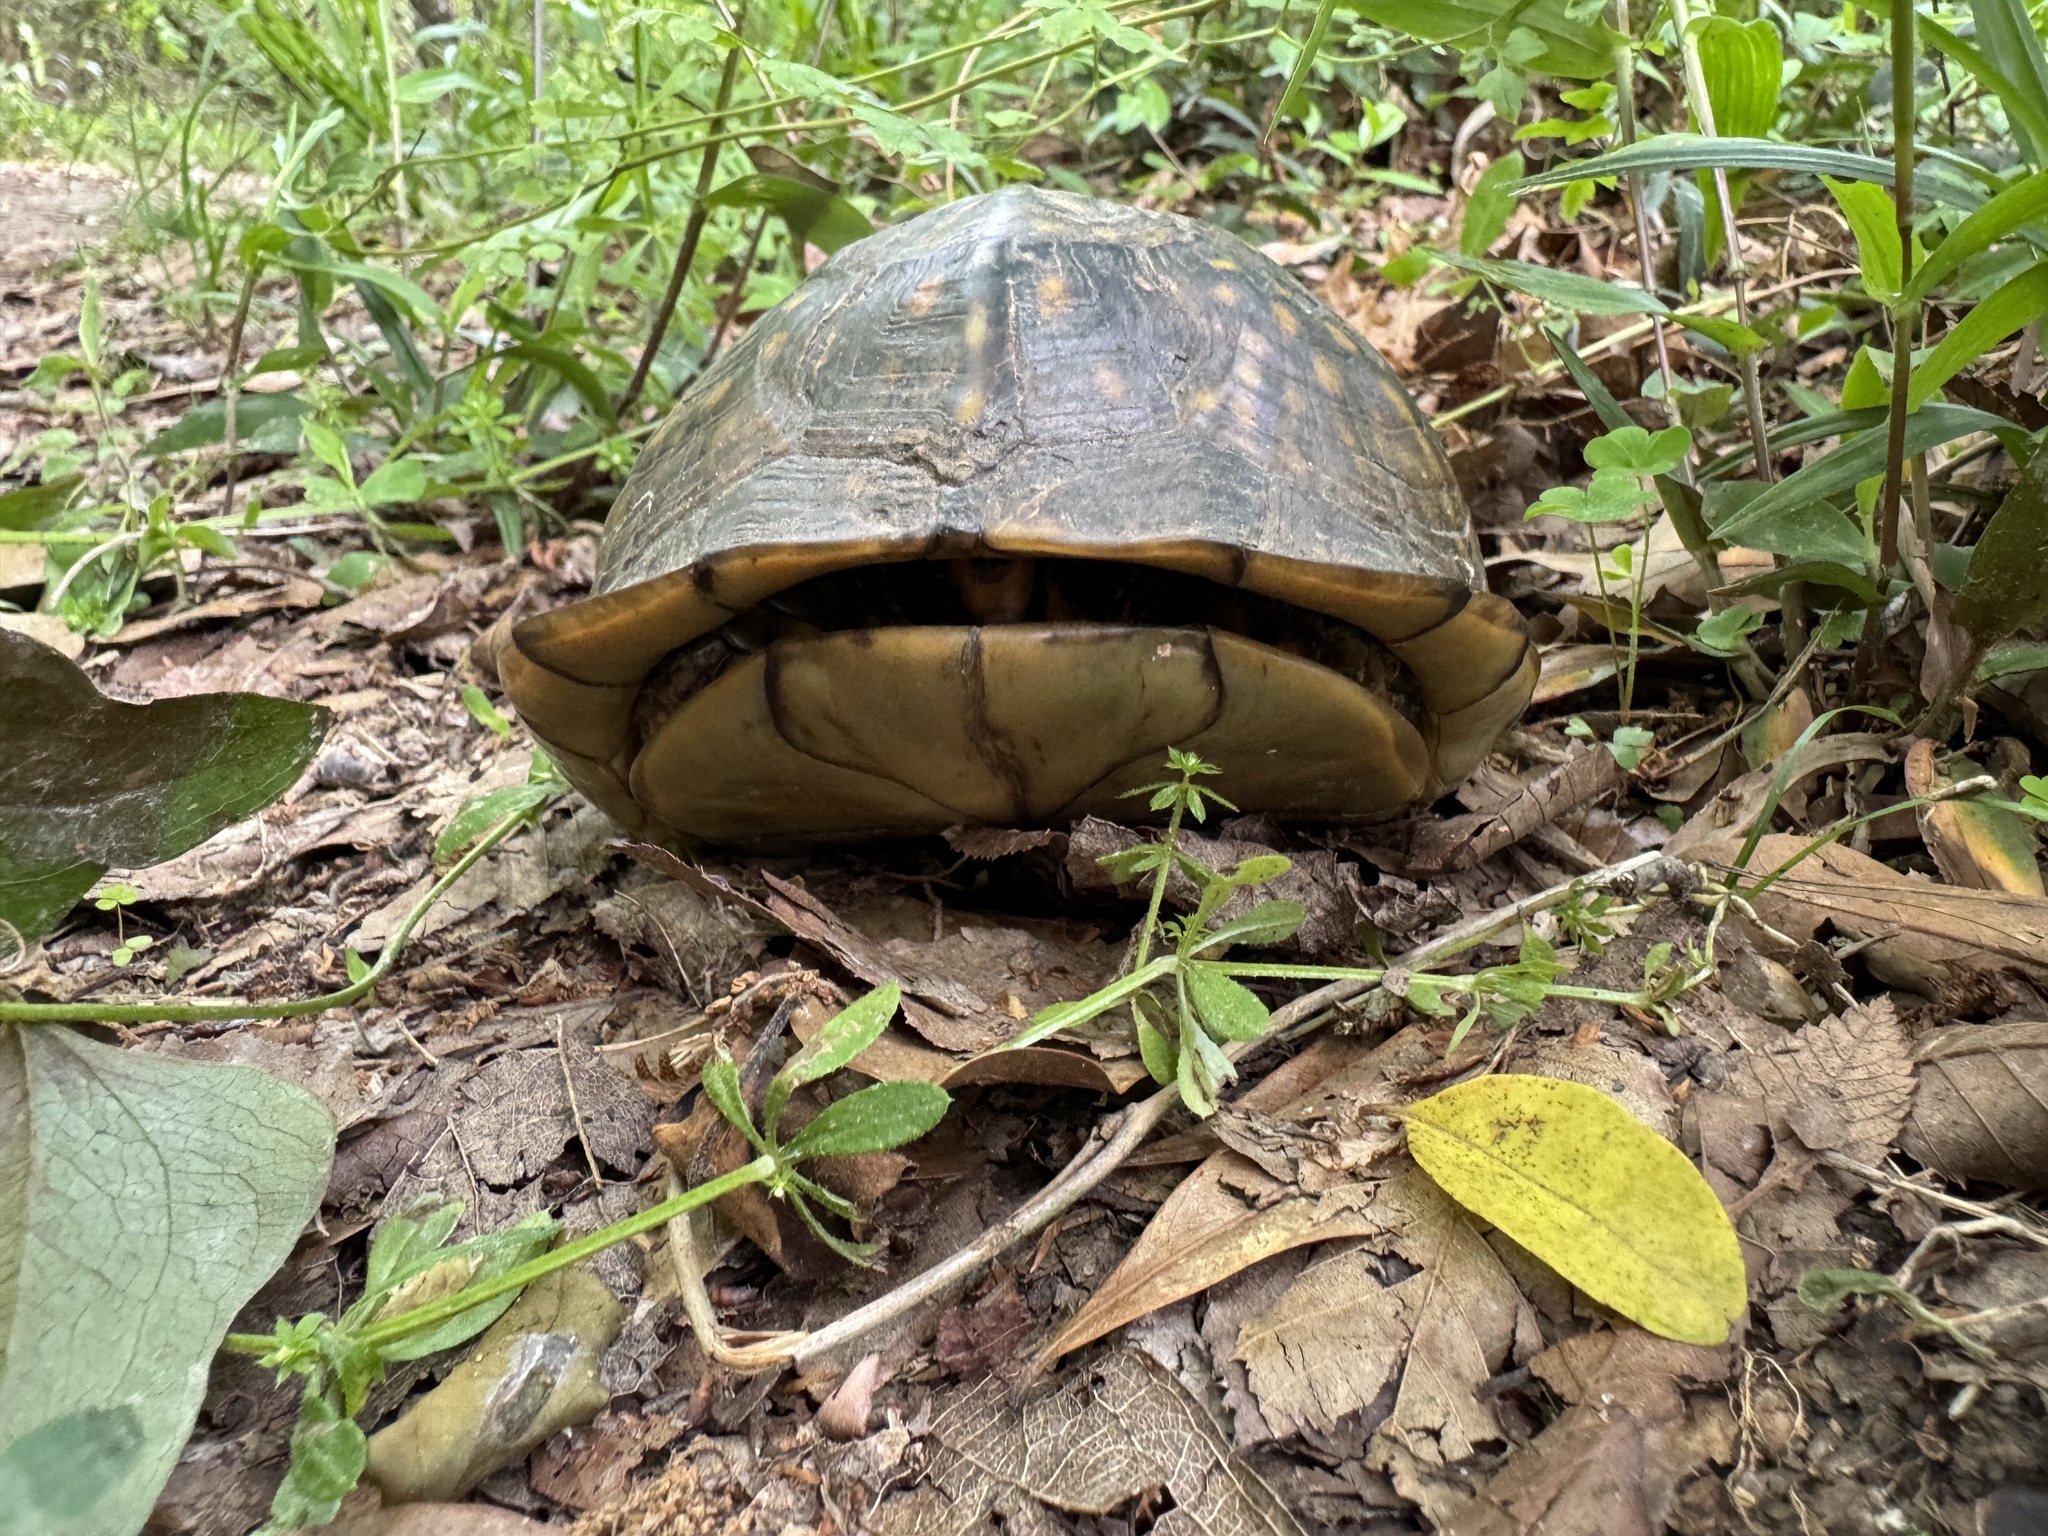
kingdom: Animalia
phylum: Chordata
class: Testudines
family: Emydidae
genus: Terrapene
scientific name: Terrapene carolina
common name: Common box turtle
